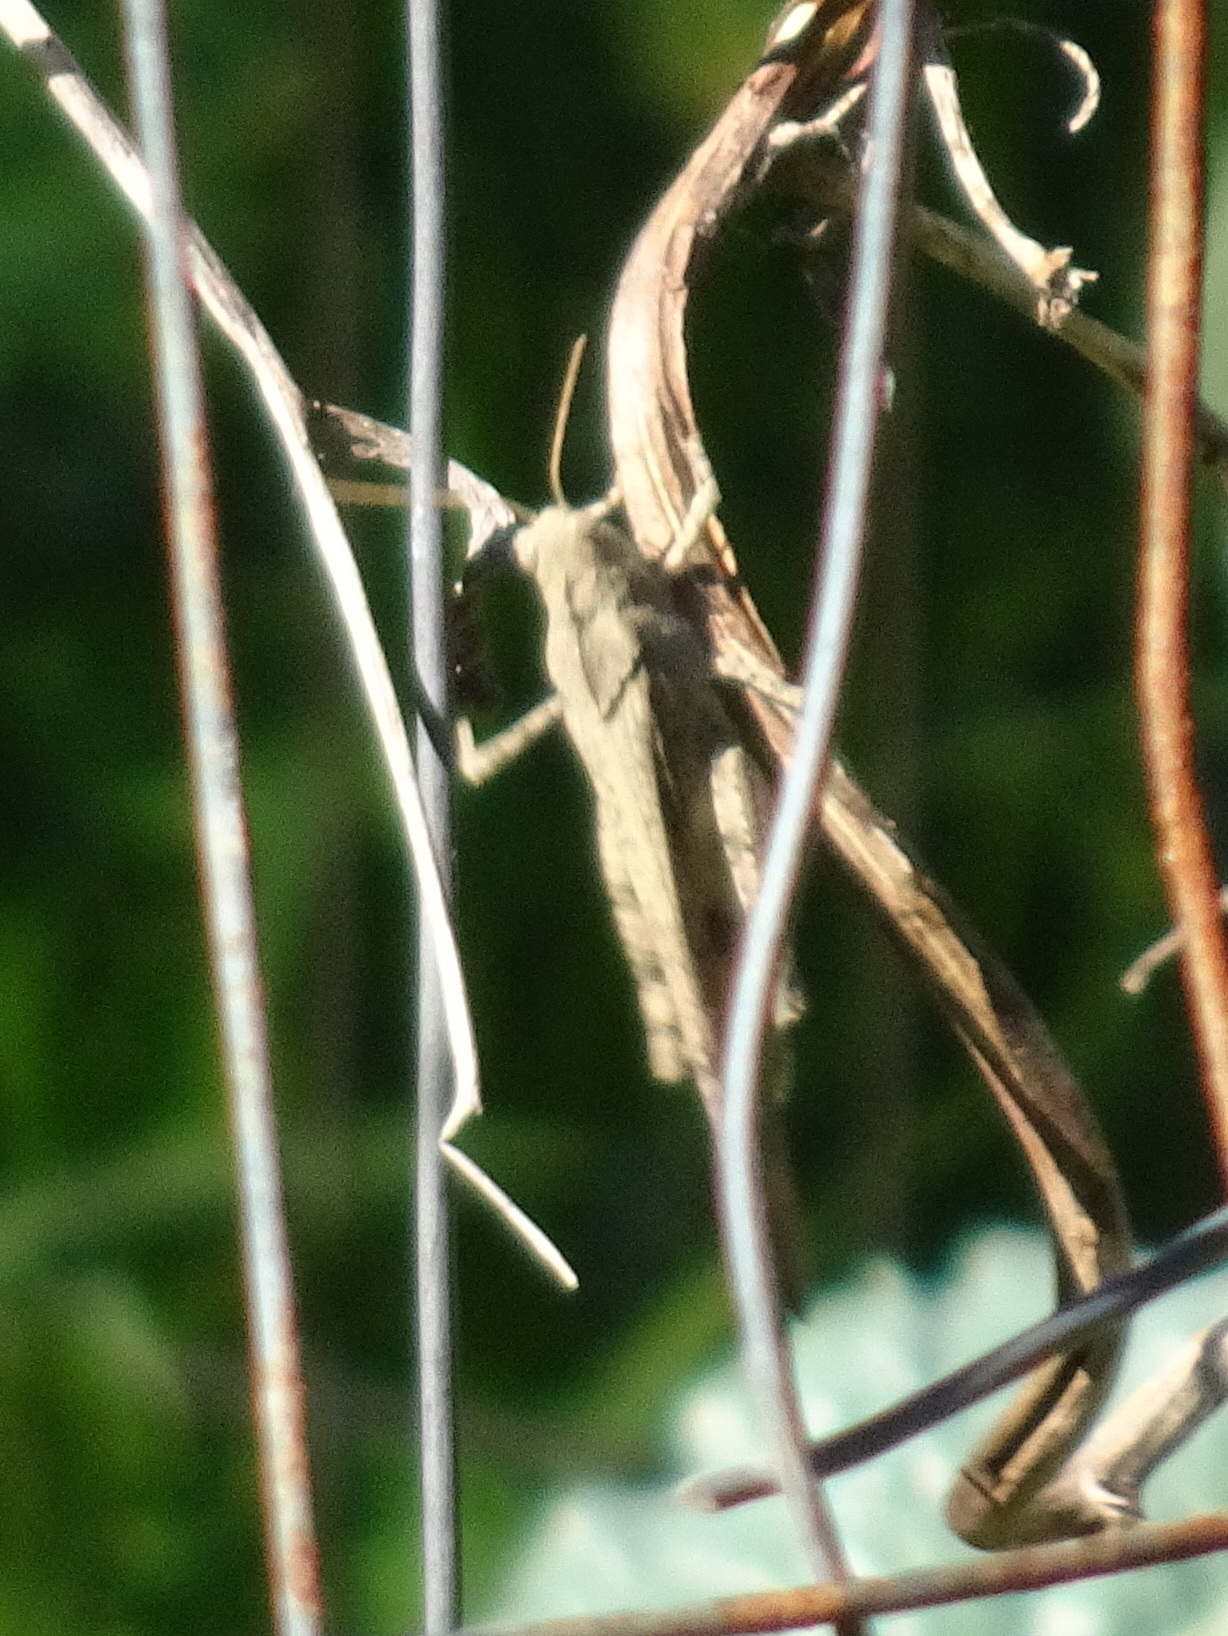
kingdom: Animalia
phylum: Arthropoda
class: Insecta
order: Orthoptera
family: Acrididae
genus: Dissosteira
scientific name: Dissosteira carolina
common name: Carolina grasshopper
